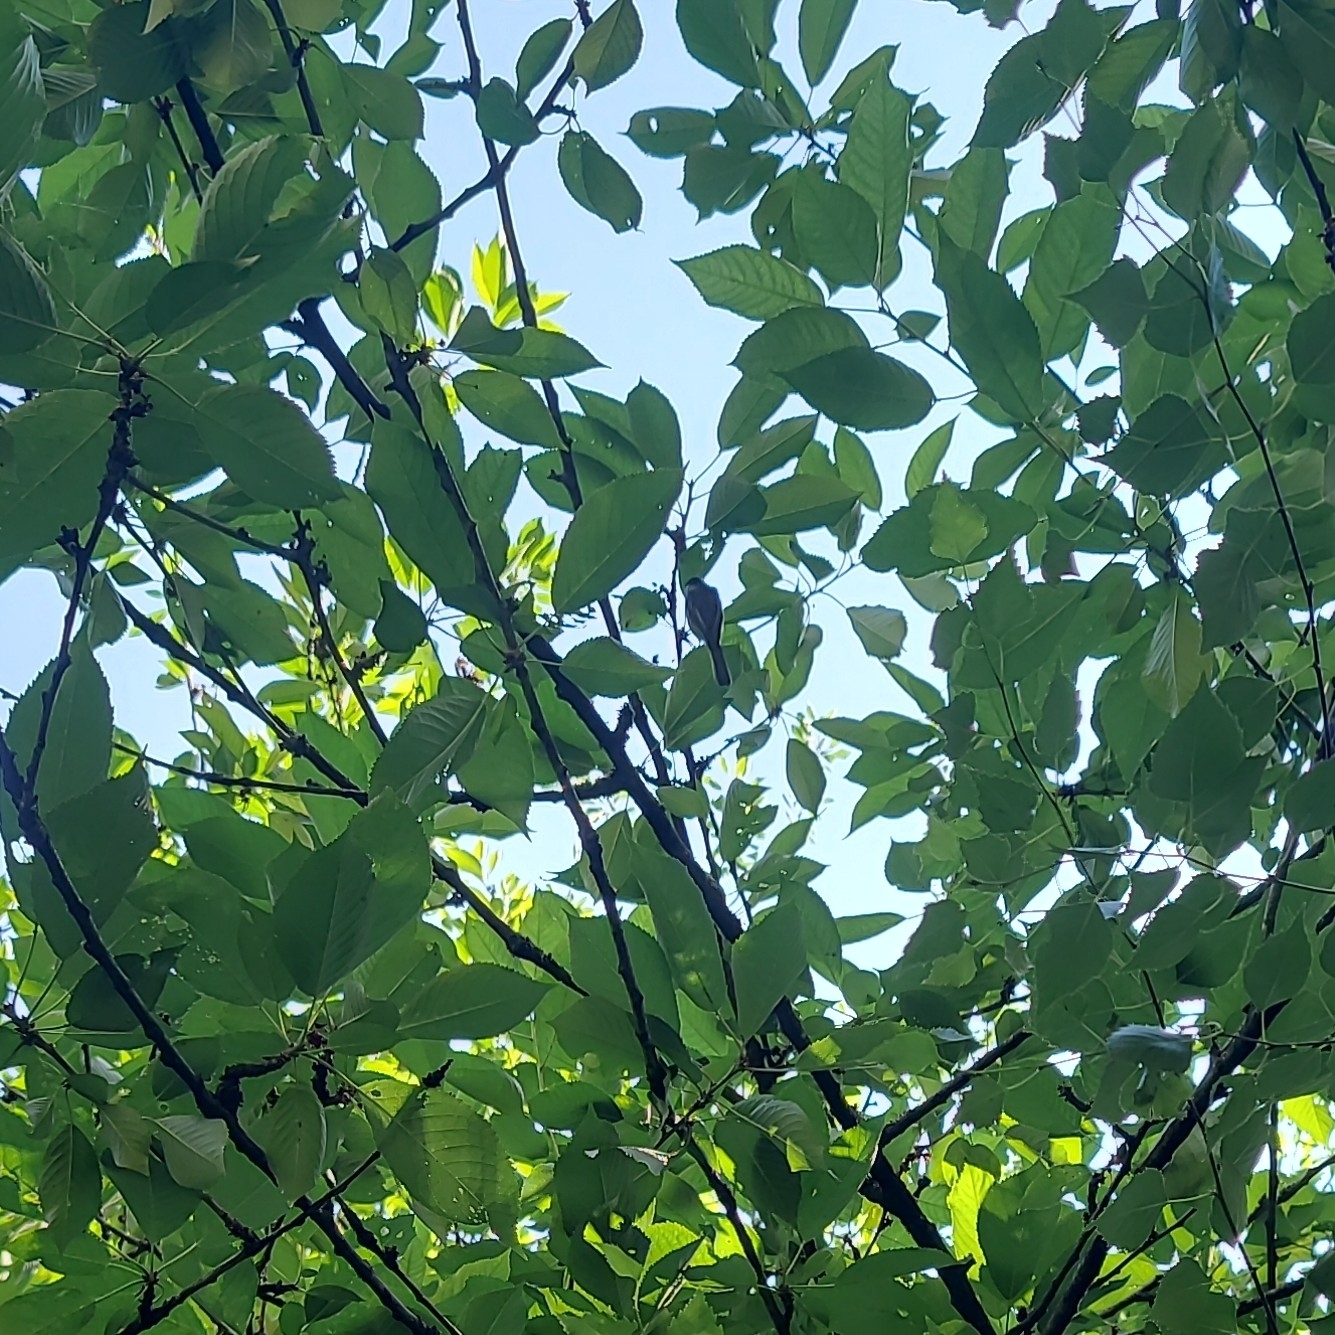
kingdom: Animalia
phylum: Chordata
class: Aves
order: Passeriformes
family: Paridae
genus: Poecile
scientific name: Poecile atricapillus
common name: Black-capped chickadee
